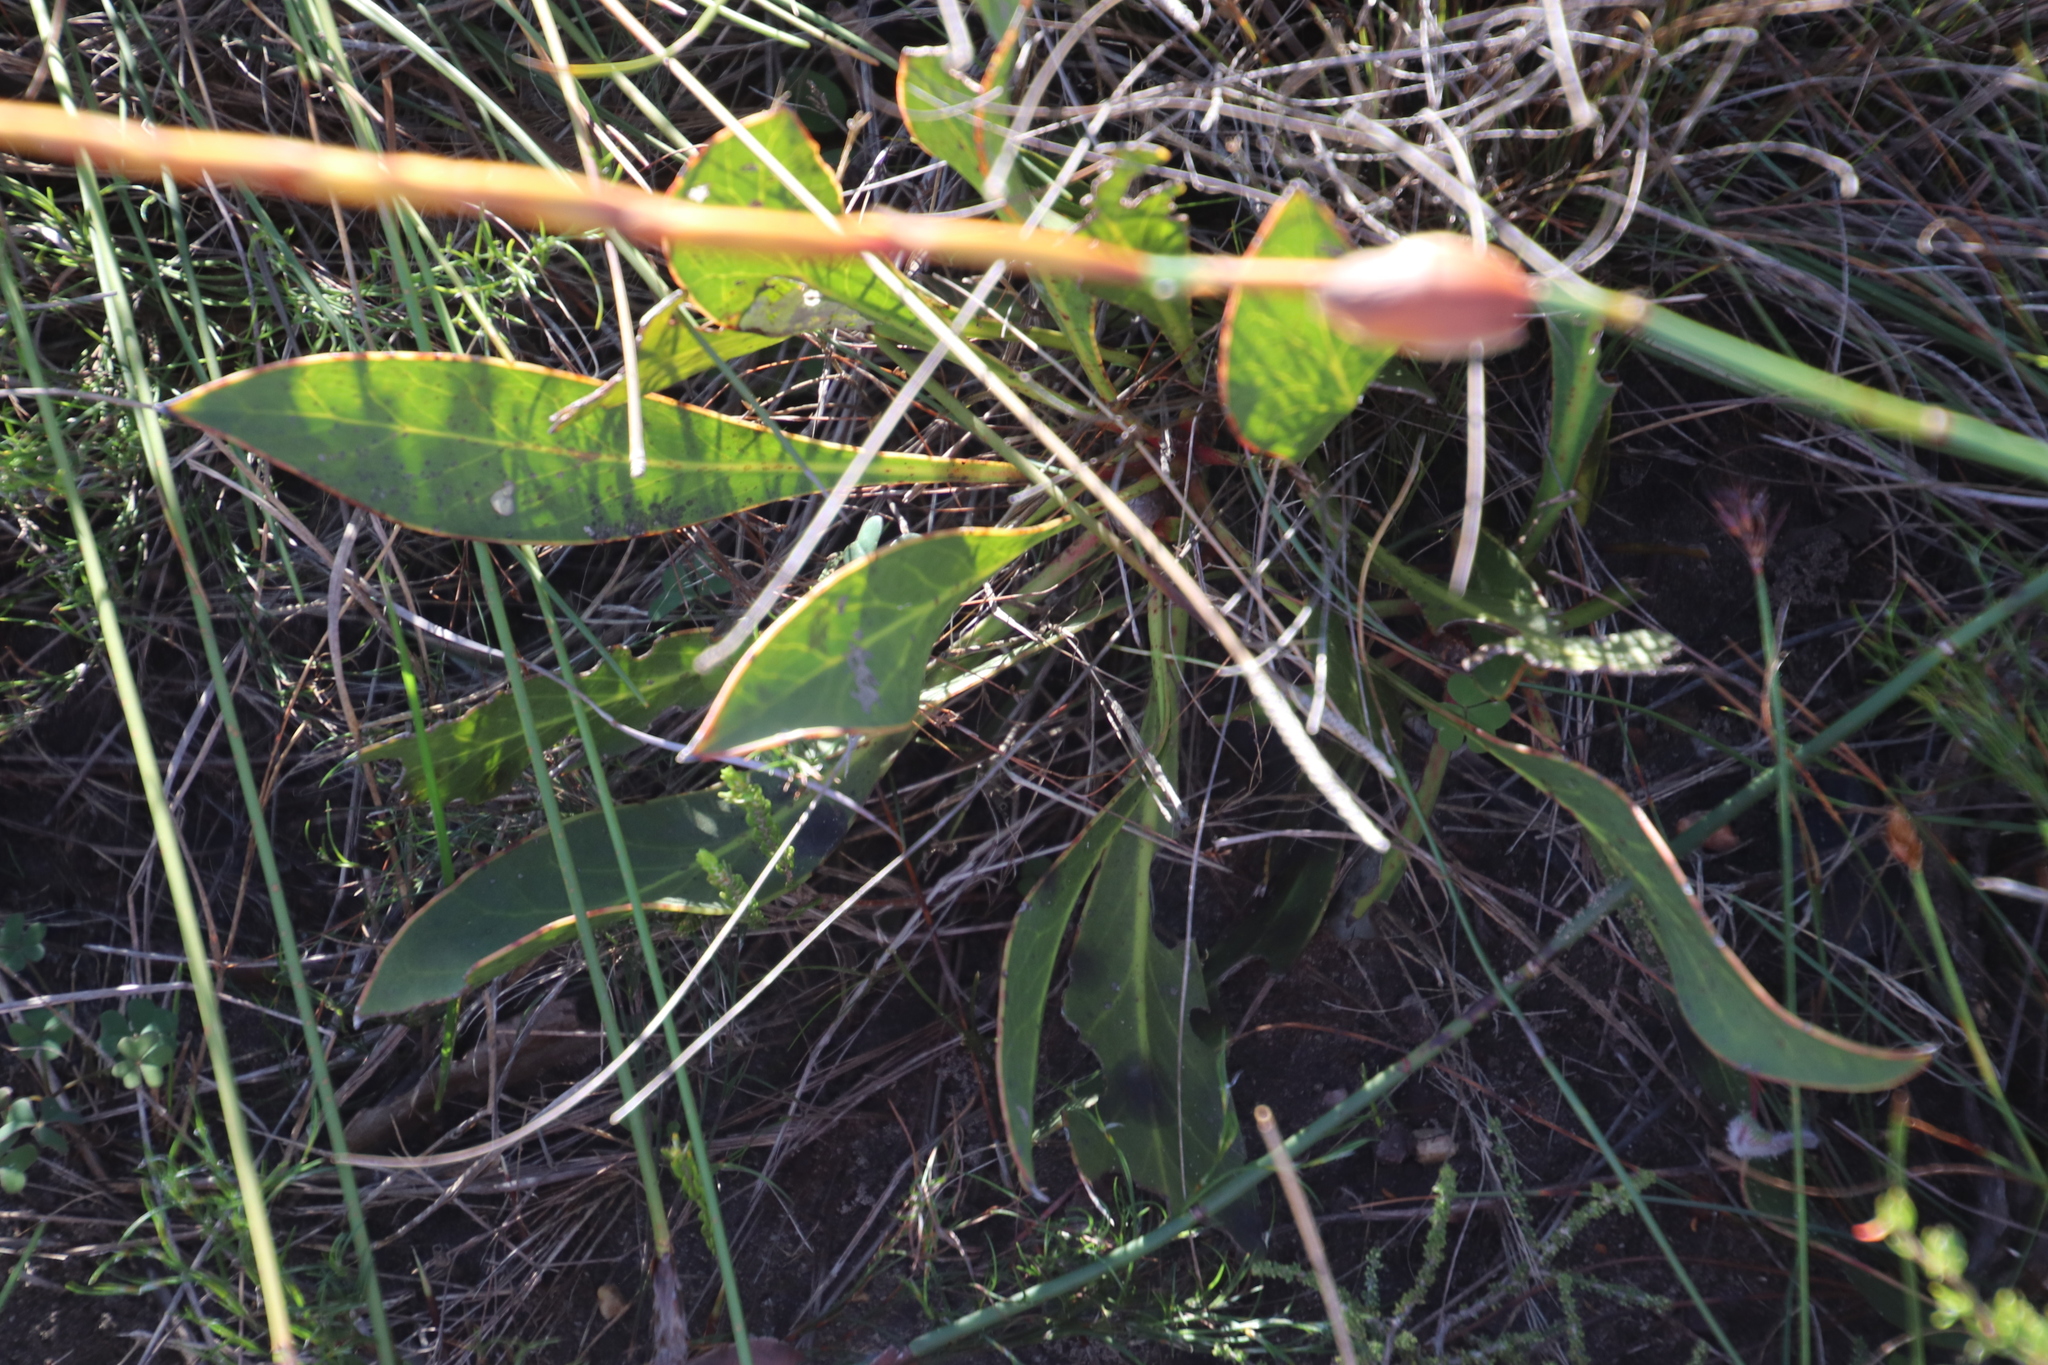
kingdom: Plantae
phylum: Tracheophyta
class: Magnoliopsida
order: Proteales
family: Proteaceae
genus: Protea
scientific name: Protea acaulos
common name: Common ground sugarbush
